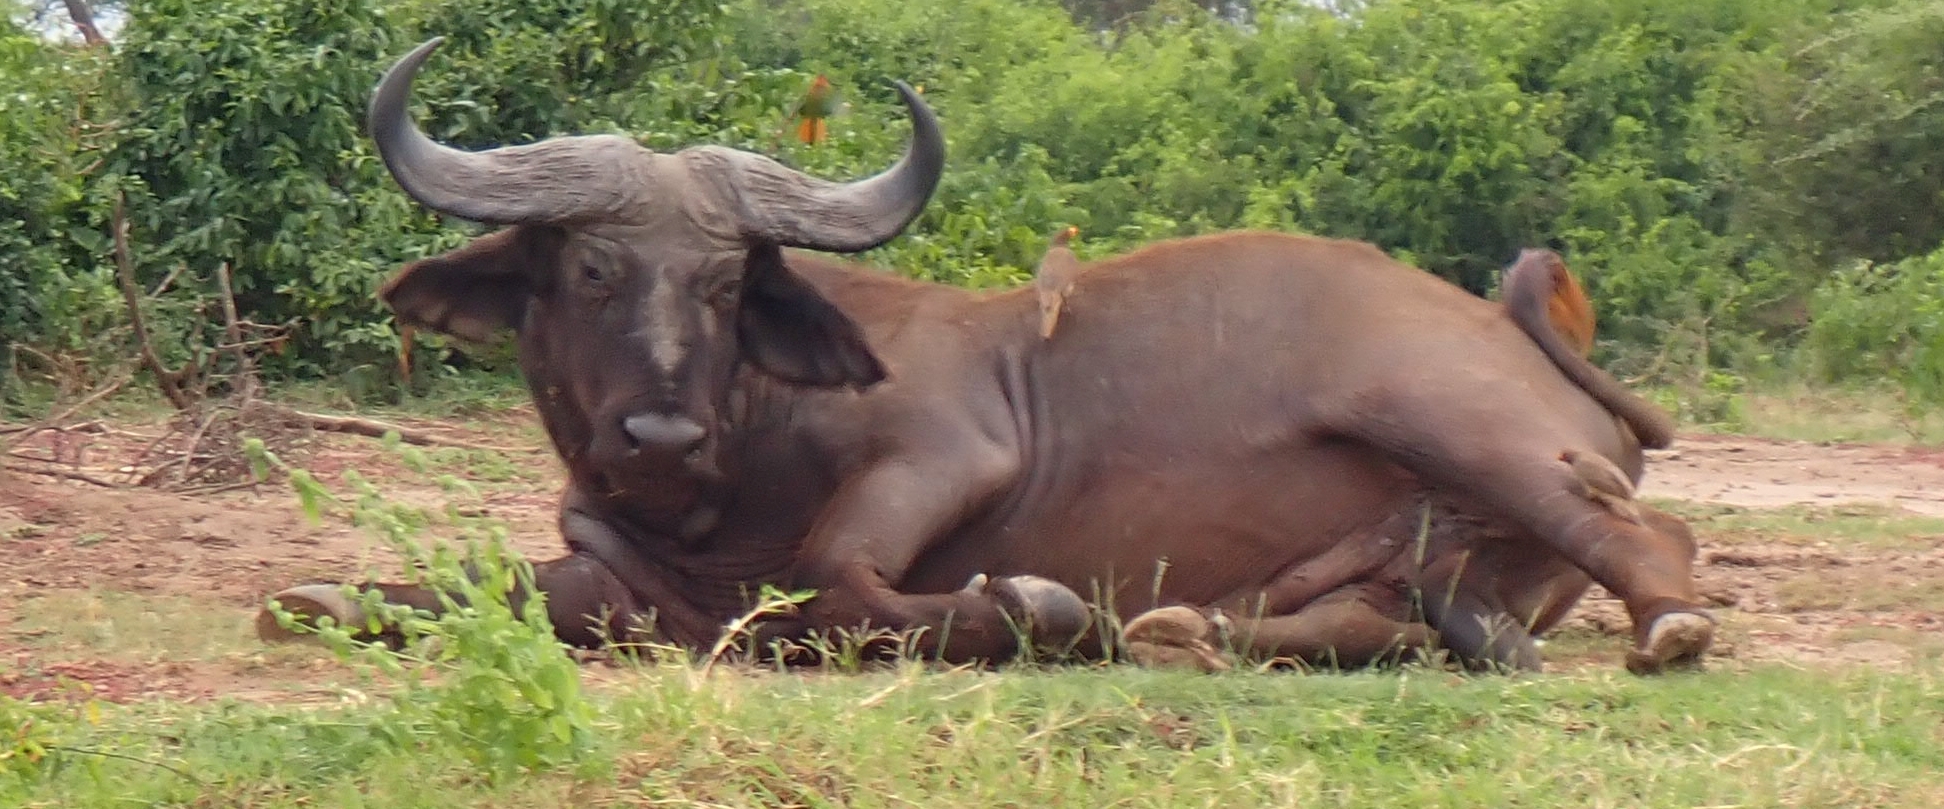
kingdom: Animalia
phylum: Chordata
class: Mammalia
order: Artiodactyla
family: Bovidae
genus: Syncerus
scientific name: Syncerus caffer
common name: African buffalo
